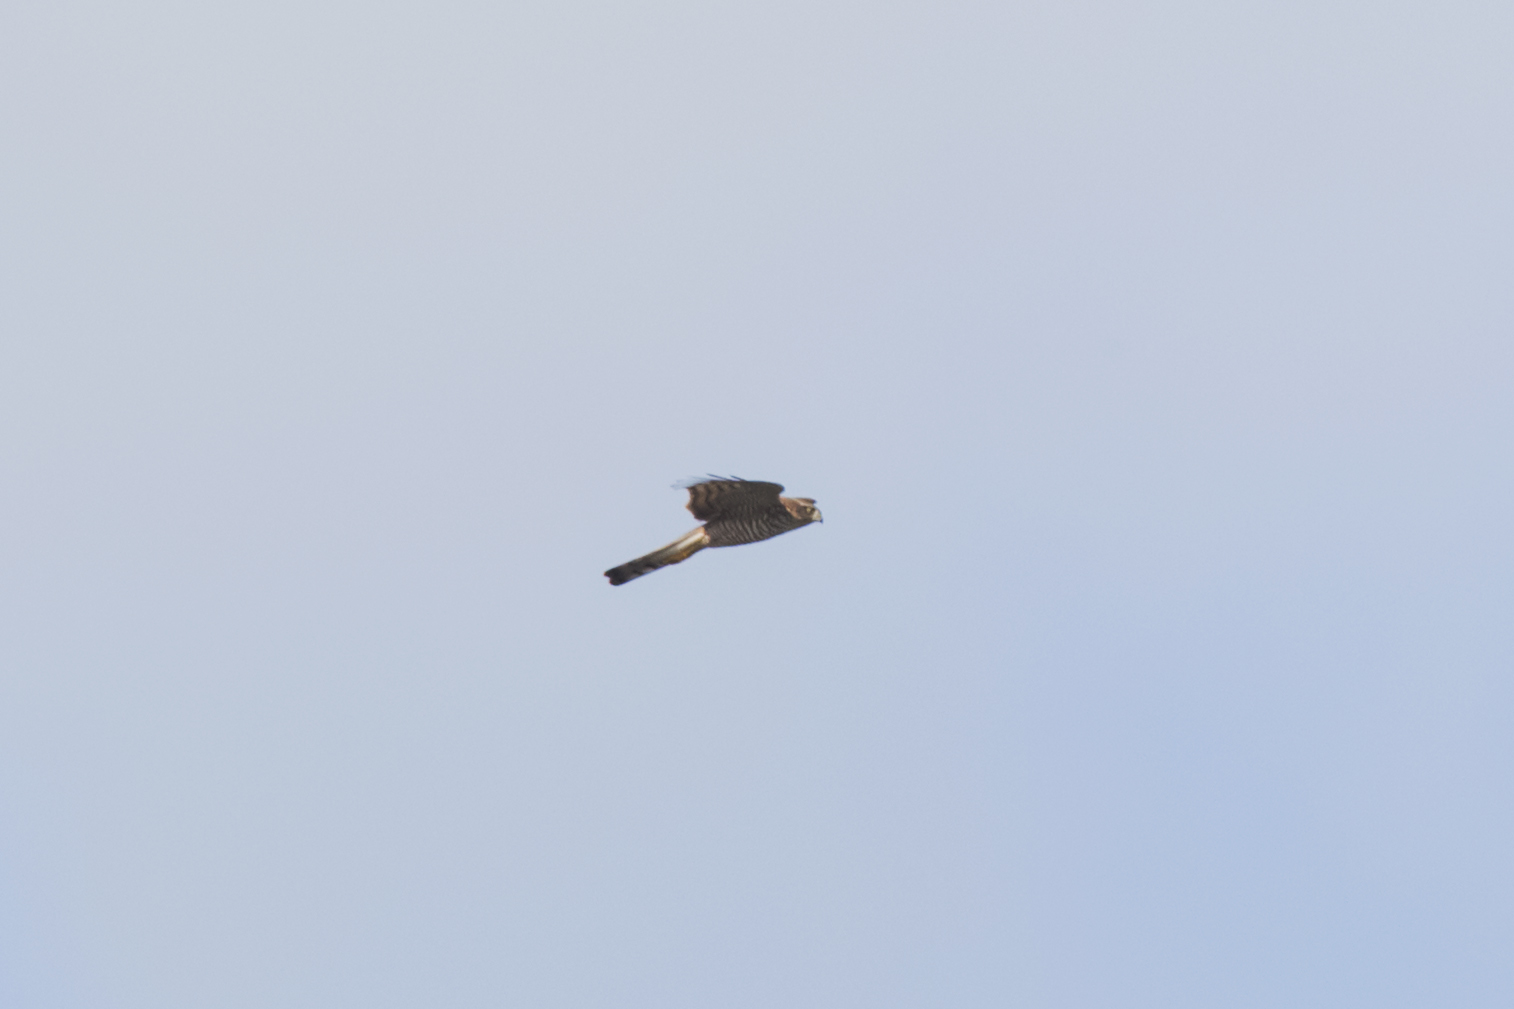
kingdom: Animalia
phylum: Chordata
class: Aves
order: Accipitriformes
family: Accipitridae
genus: Accipiter
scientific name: Accipiter nisus
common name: Eurasian sparrowhawk
